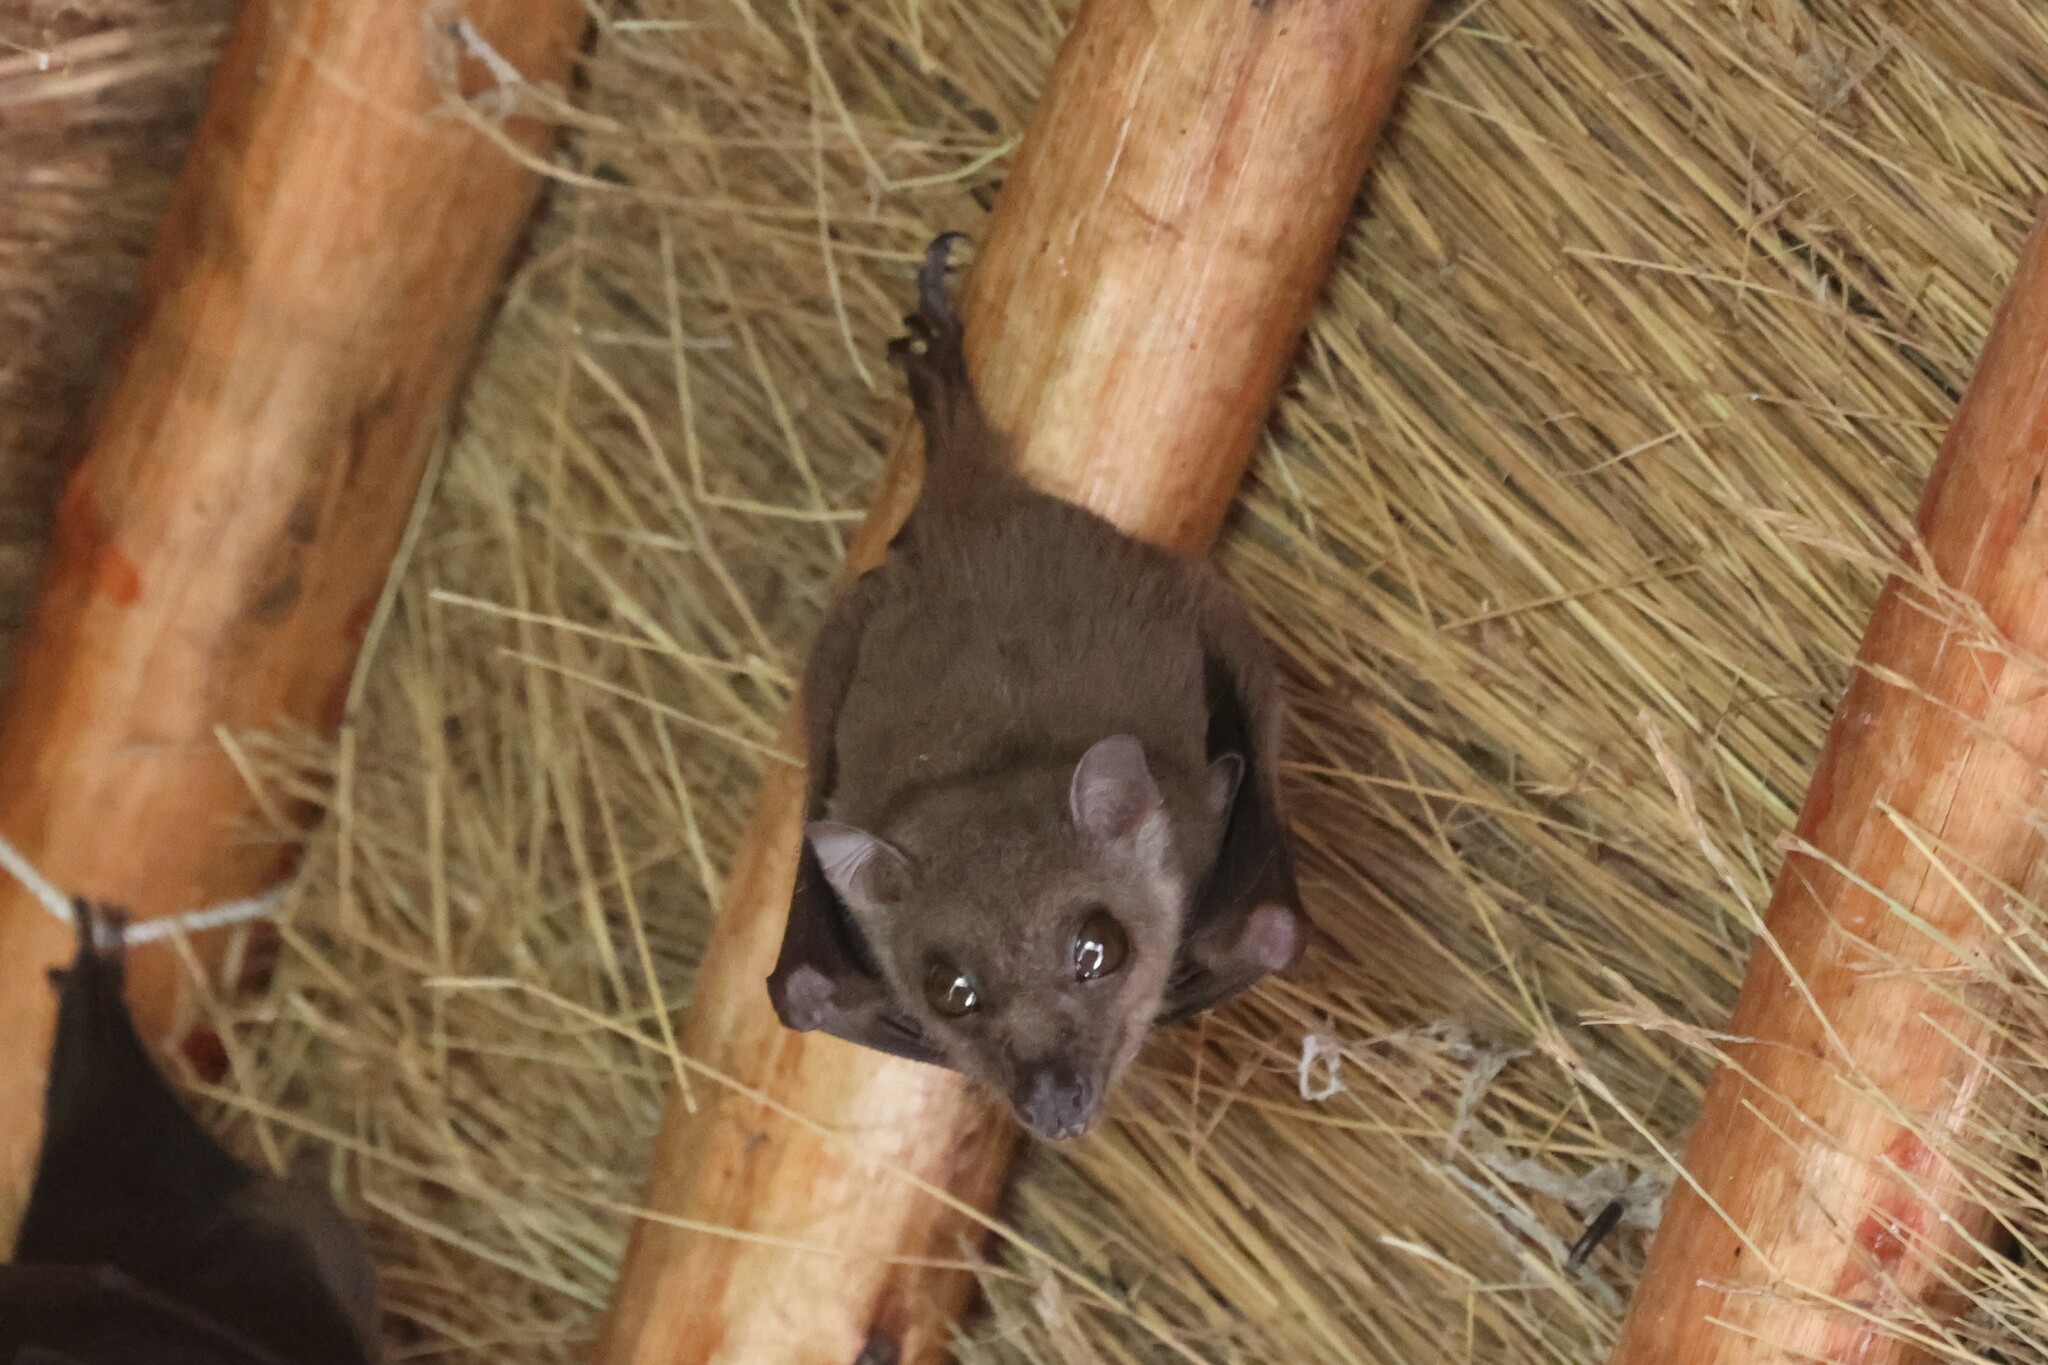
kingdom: Animalia
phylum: Chordata
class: Mammalia
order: Chiroptera
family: Pteropodidae
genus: Myonycteris
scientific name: Myonycteris angolensis
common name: Angolan rousette
